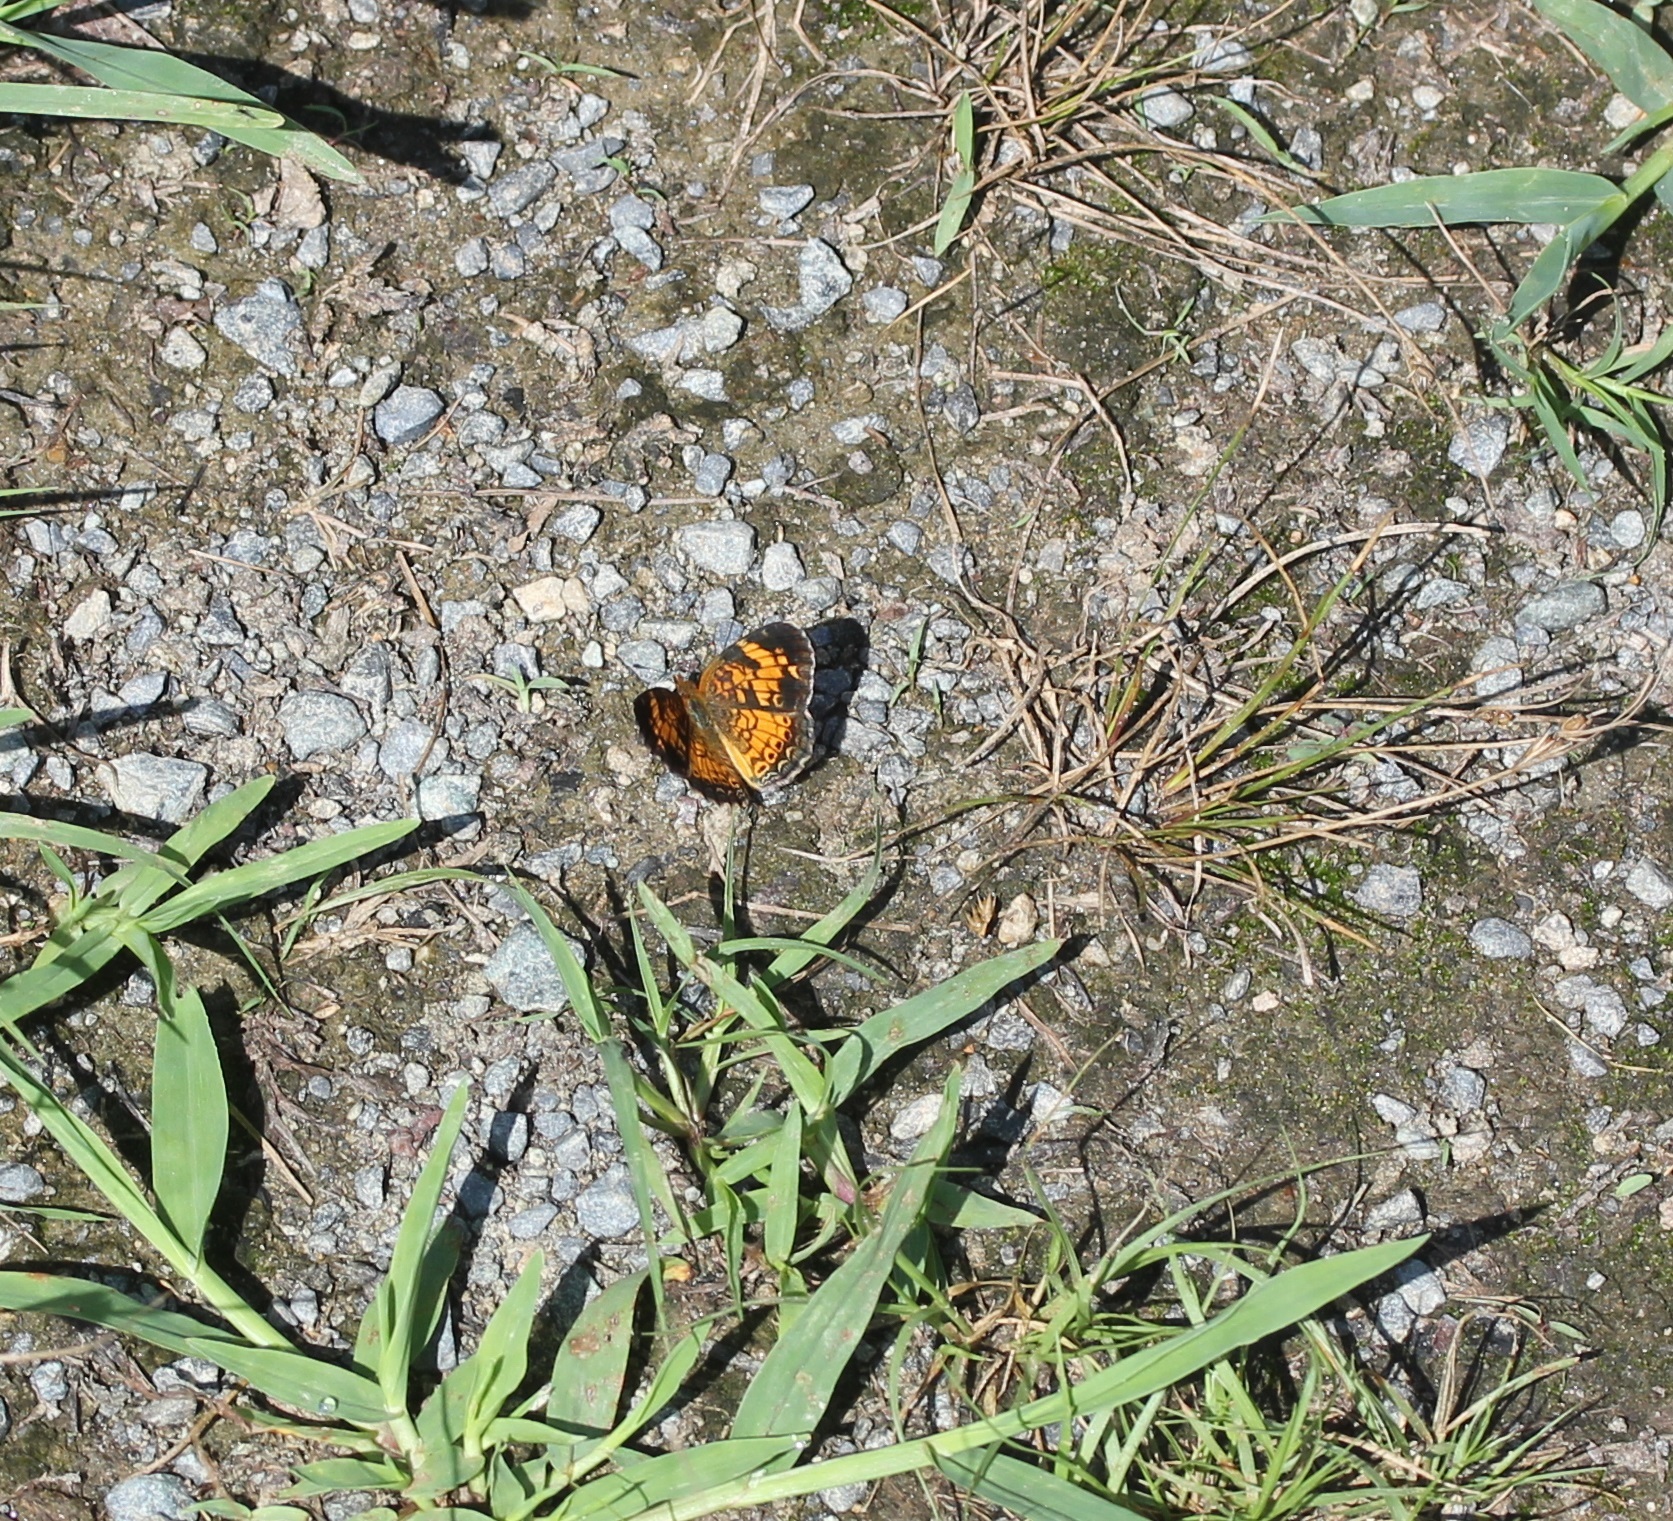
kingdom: Animalia
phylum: Arthropoda
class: Insecta
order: Lepidoptera
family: Nymphalidae
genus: Phyciodes
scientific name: Phyciodes tharos
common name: Pearl crescent
